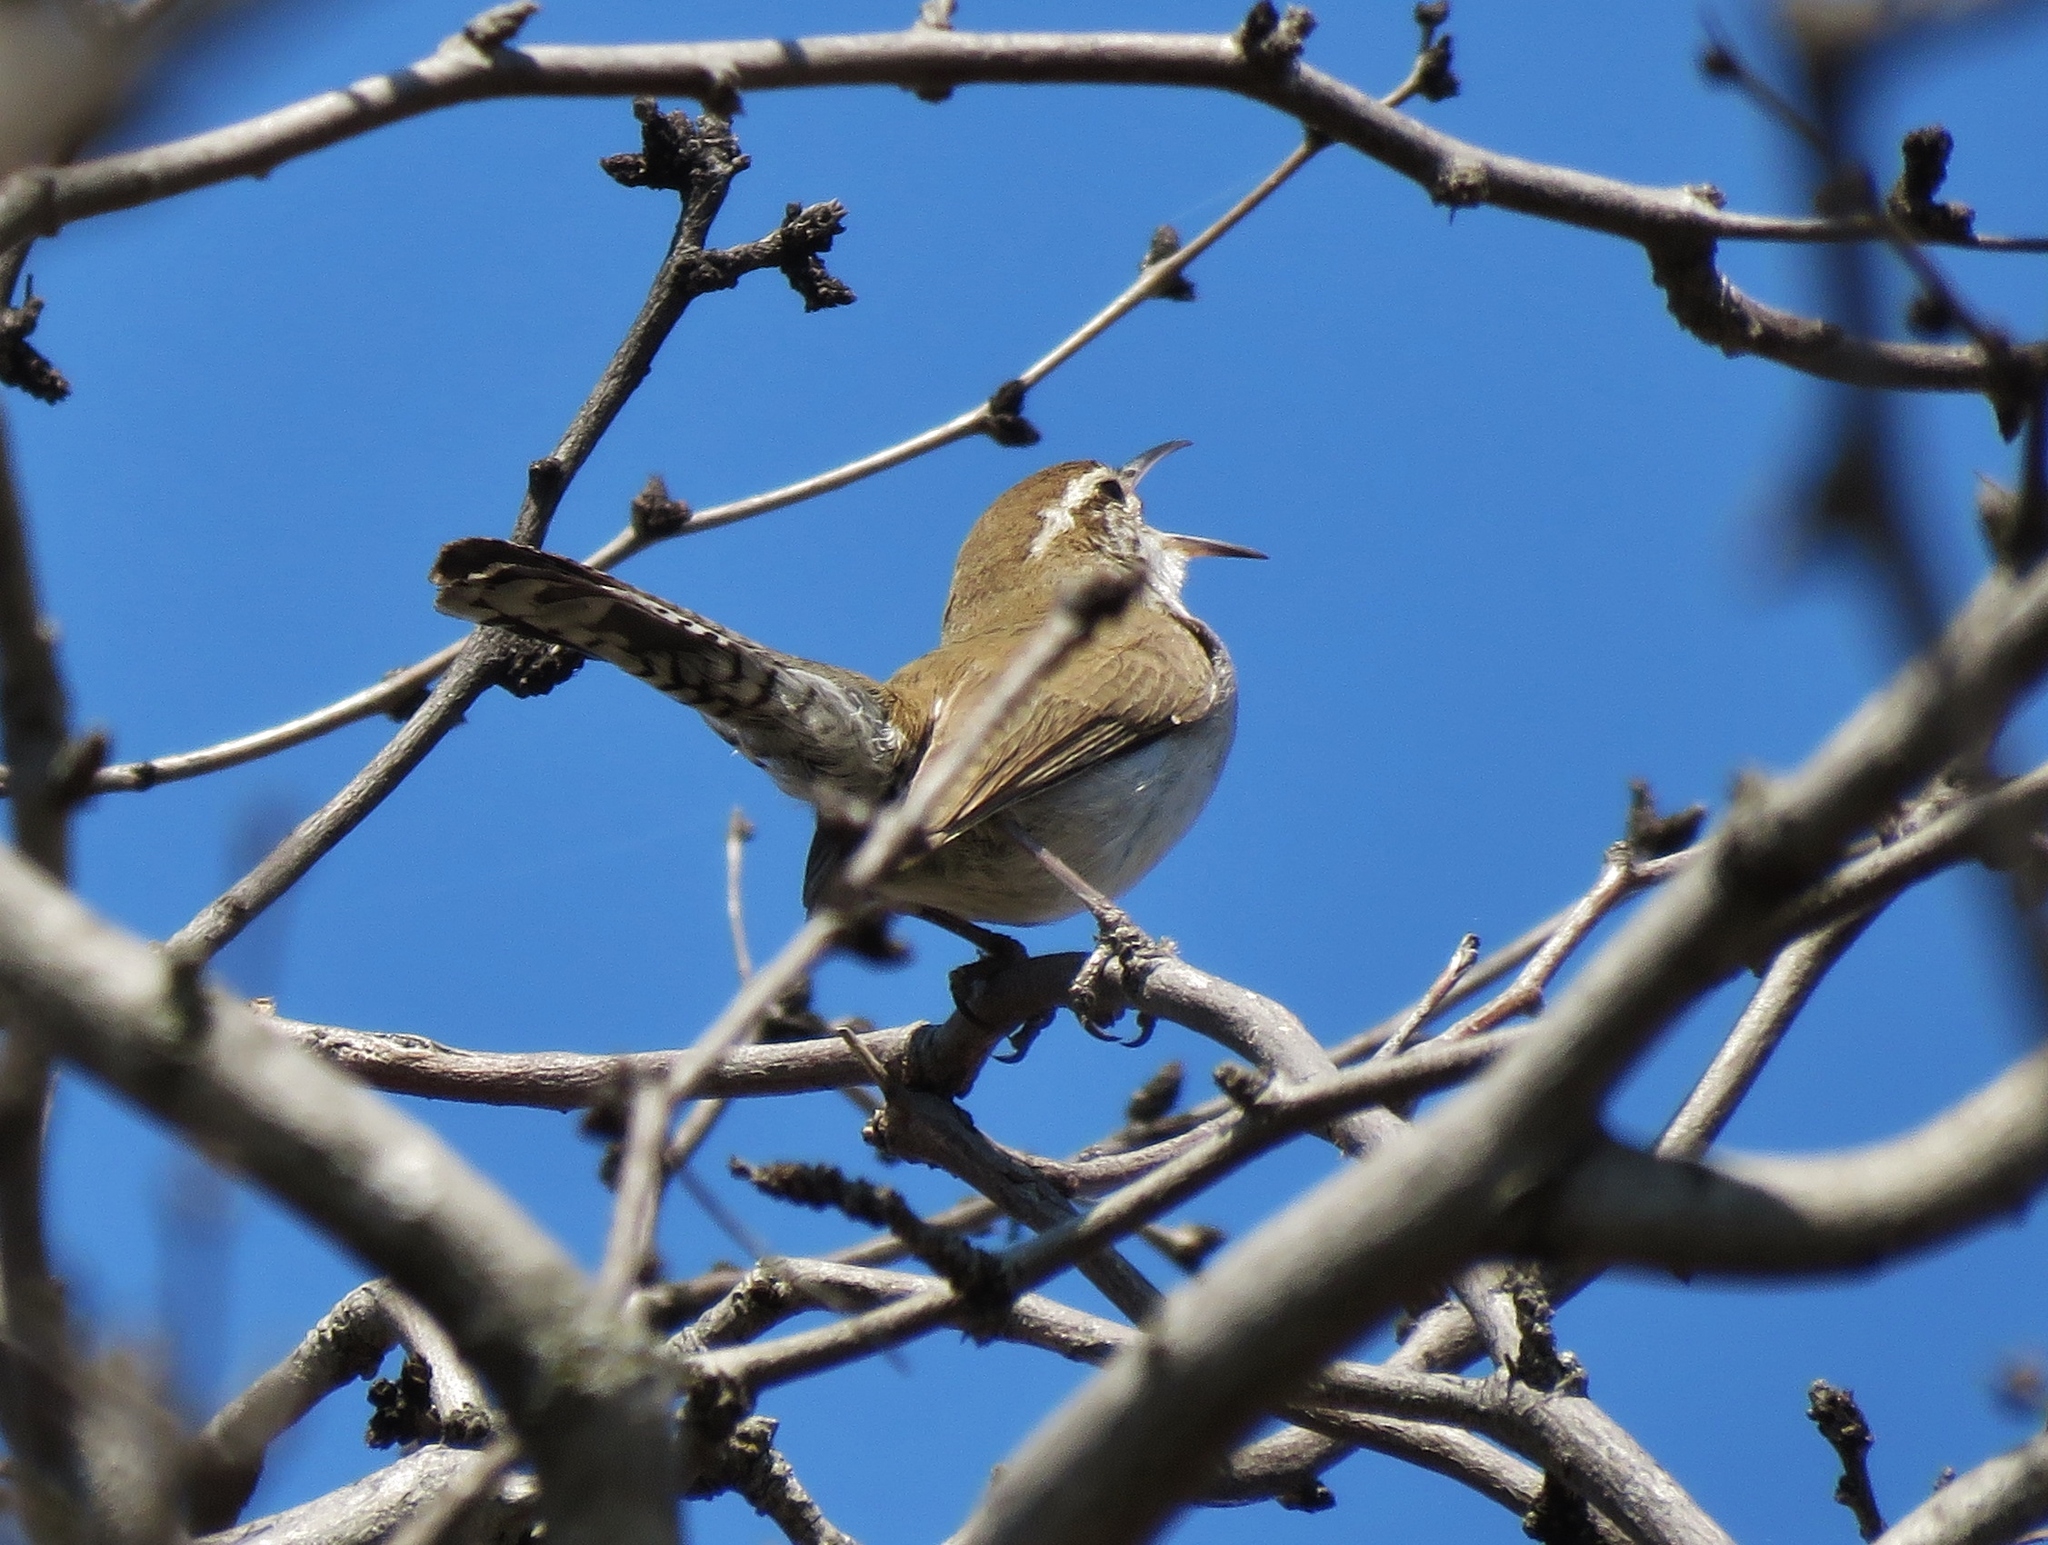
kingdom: Animalia
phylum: Chordata
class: Aves
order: Passeriformes
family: Troglodytidae
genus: Thryomanes
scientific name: Thryomanes bewickii
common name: Bewick's wren
